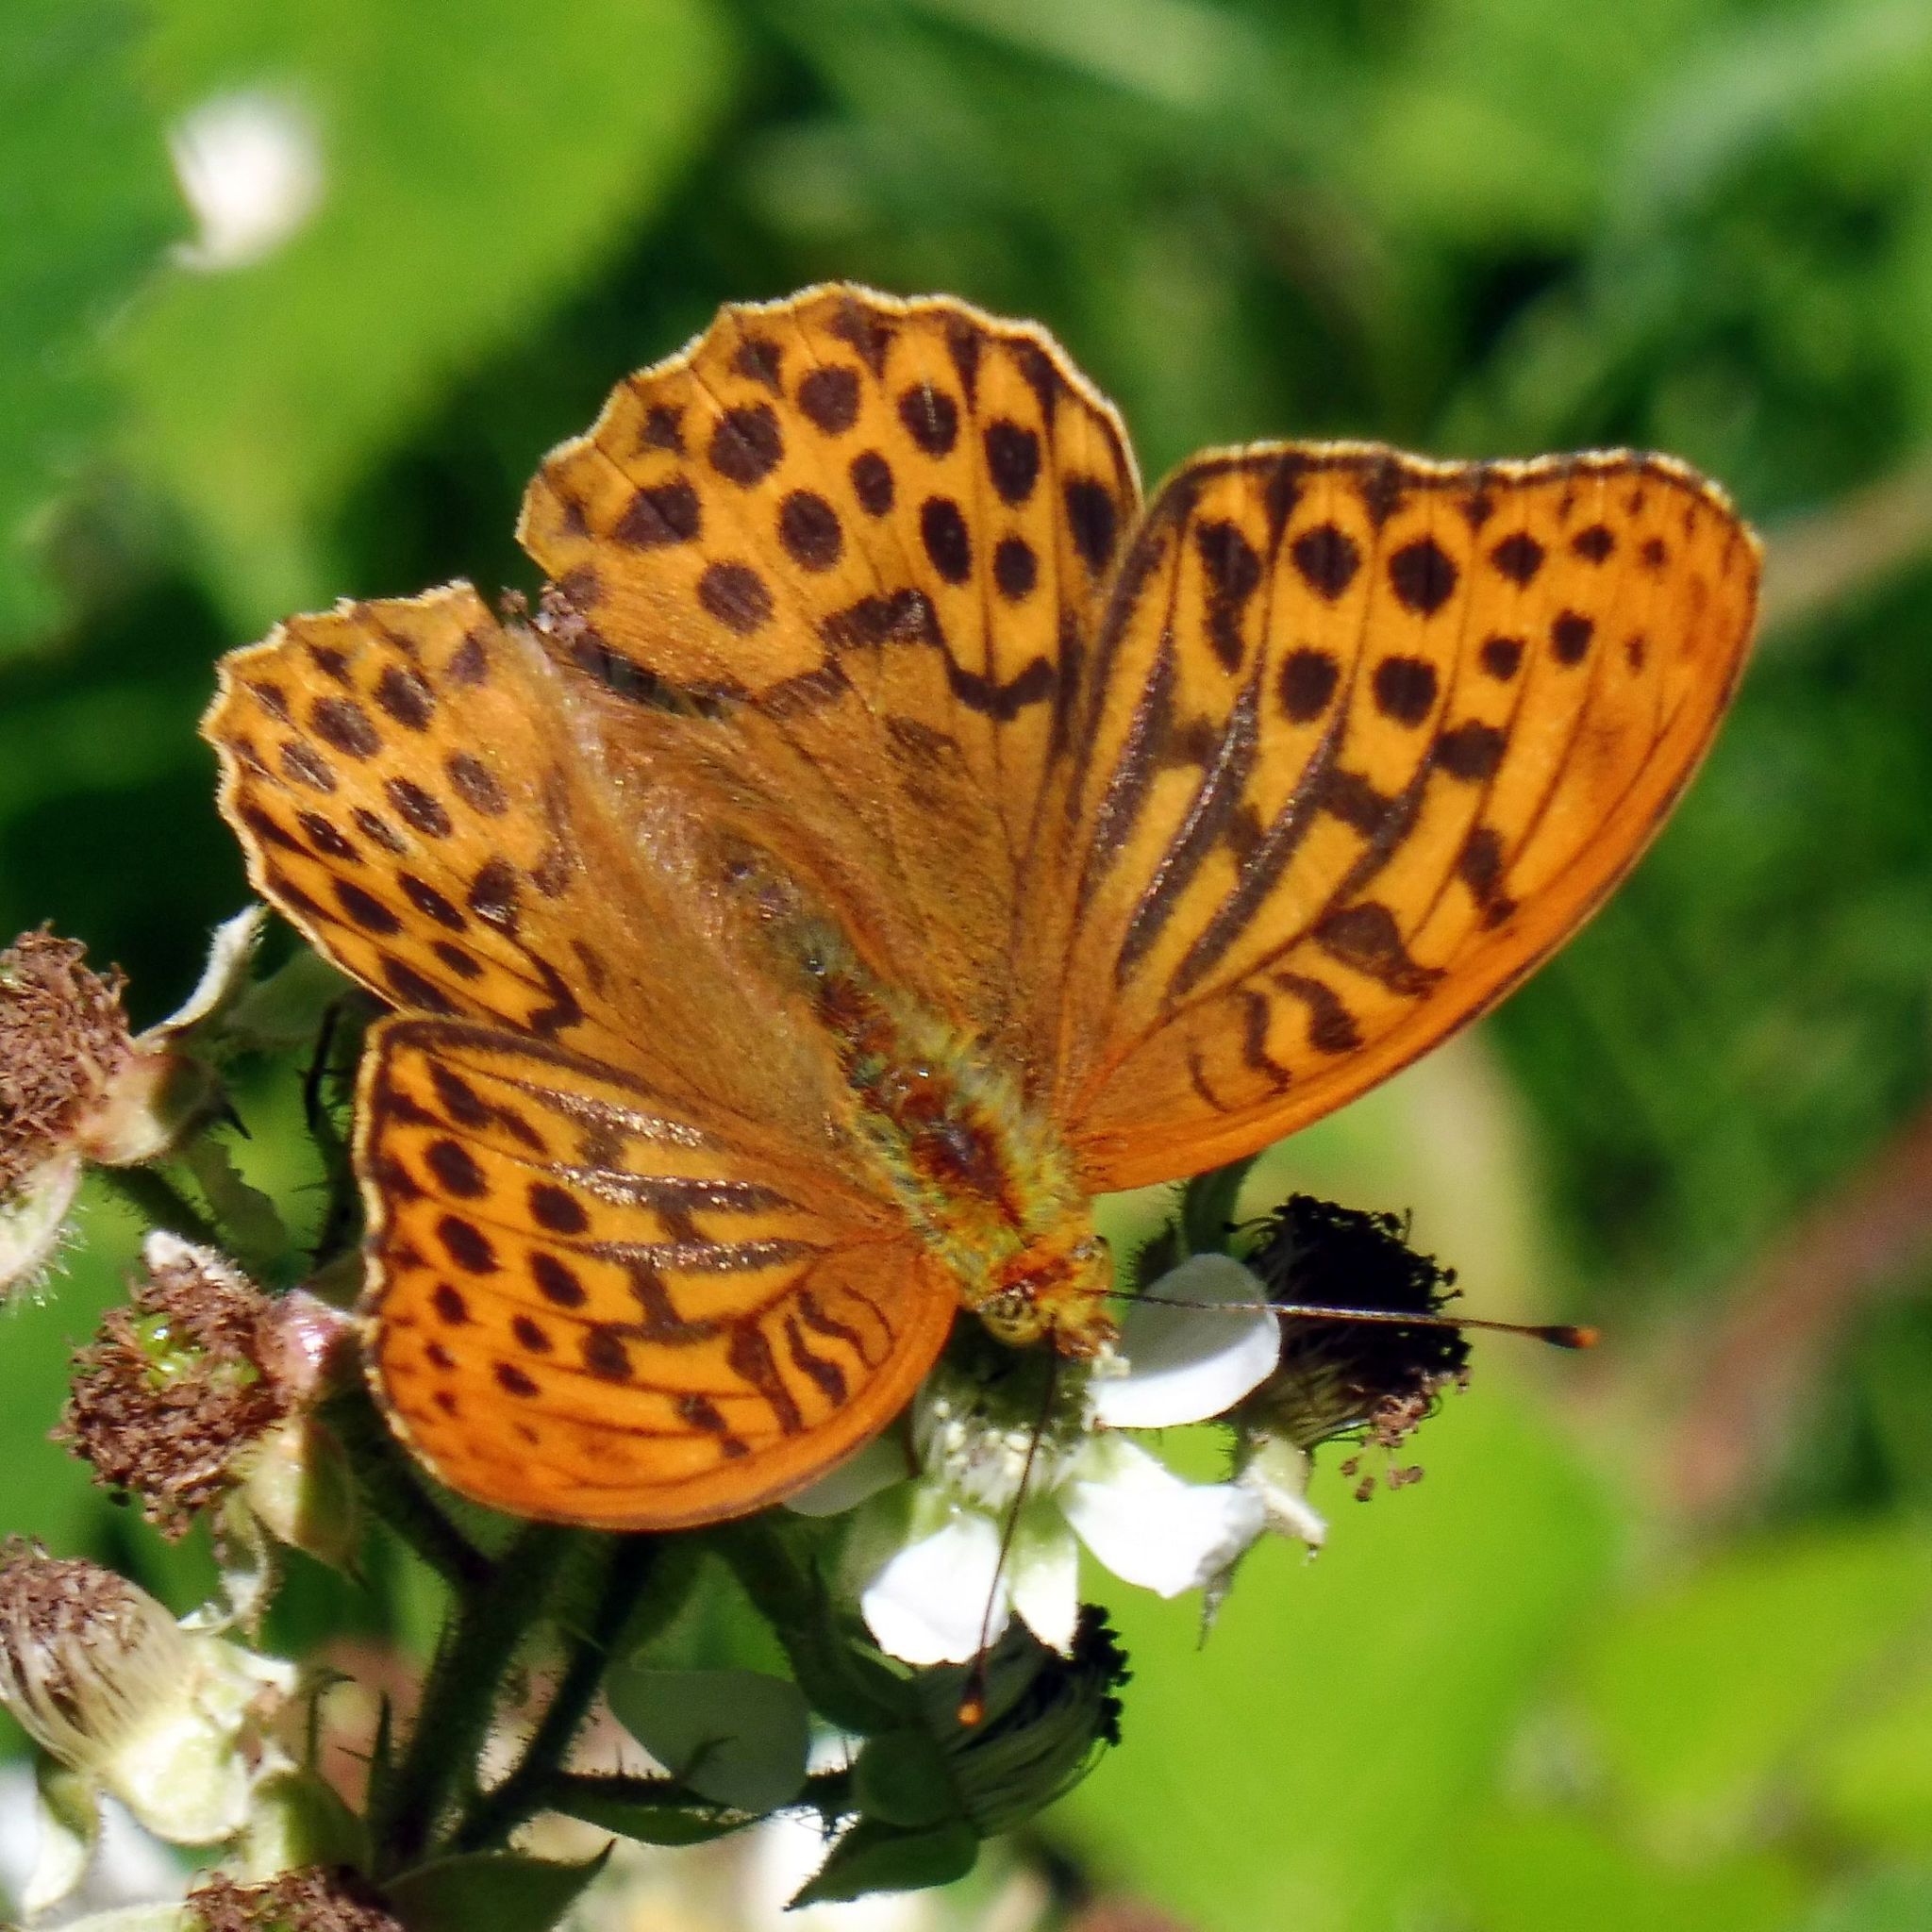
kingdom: Animalia
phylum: Arthropoda
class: Insecta
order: Lepidoptera
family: Nymphalidae
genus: Argynnis
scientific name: Argynnis paphia
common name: Silver-washed fritillary
